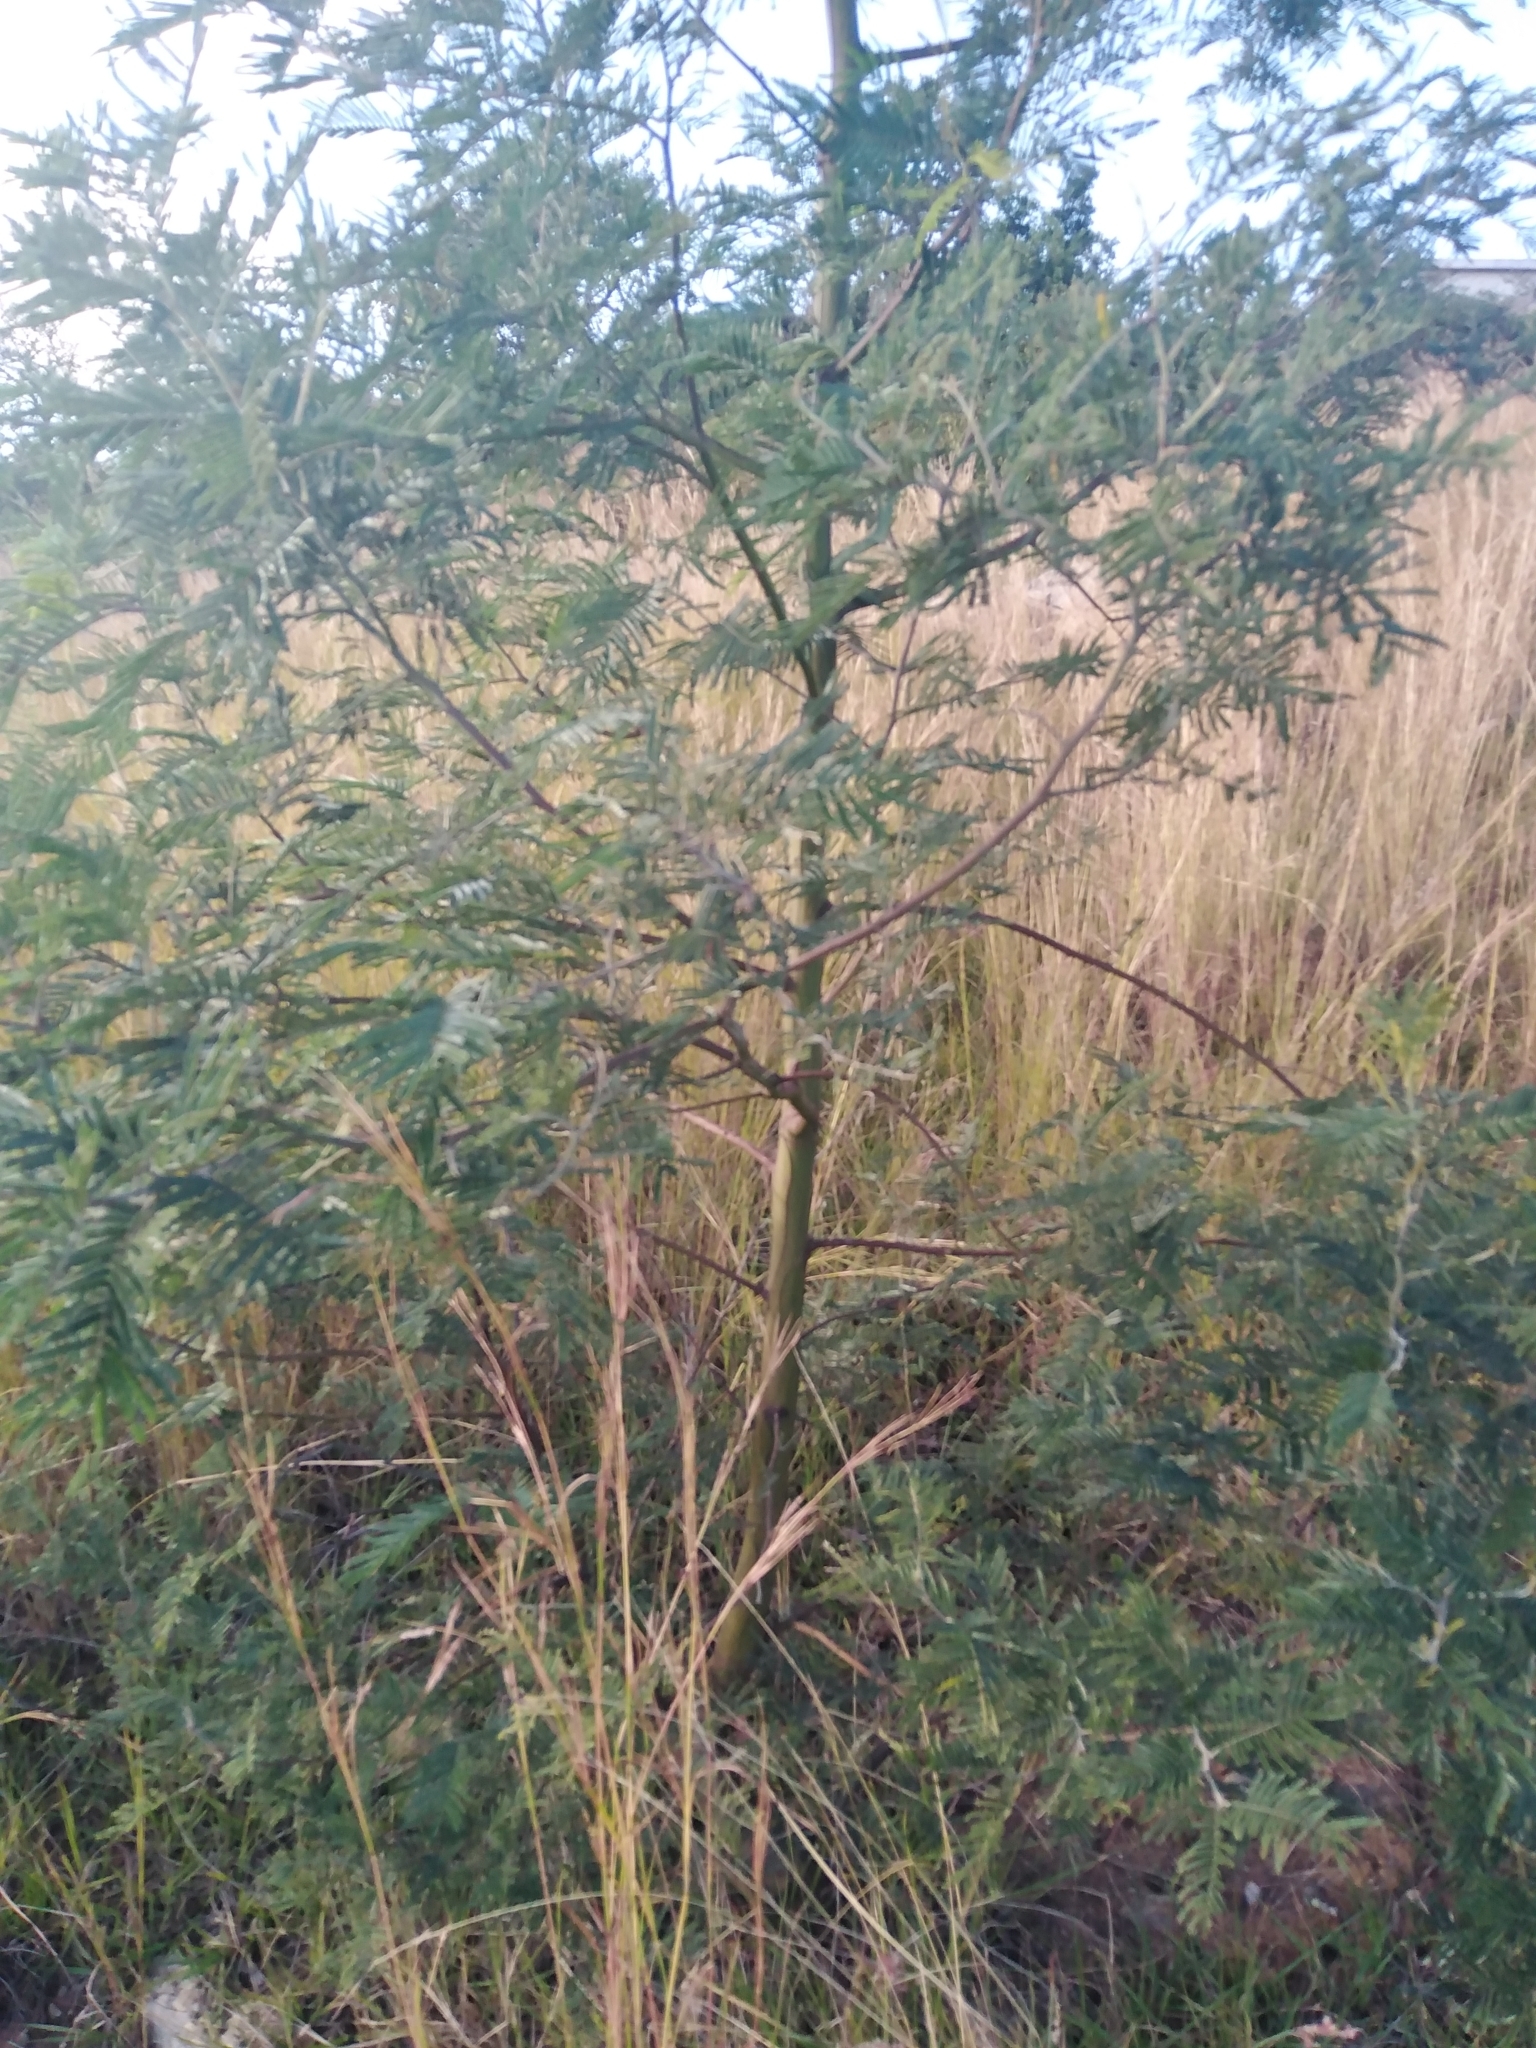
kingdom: Plantae
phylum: Tracheophyta
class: Magnoliopsida
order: Fabales
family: Fabaceae
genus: Acacia
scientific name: Acacia mearnsii
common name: Black wattle
